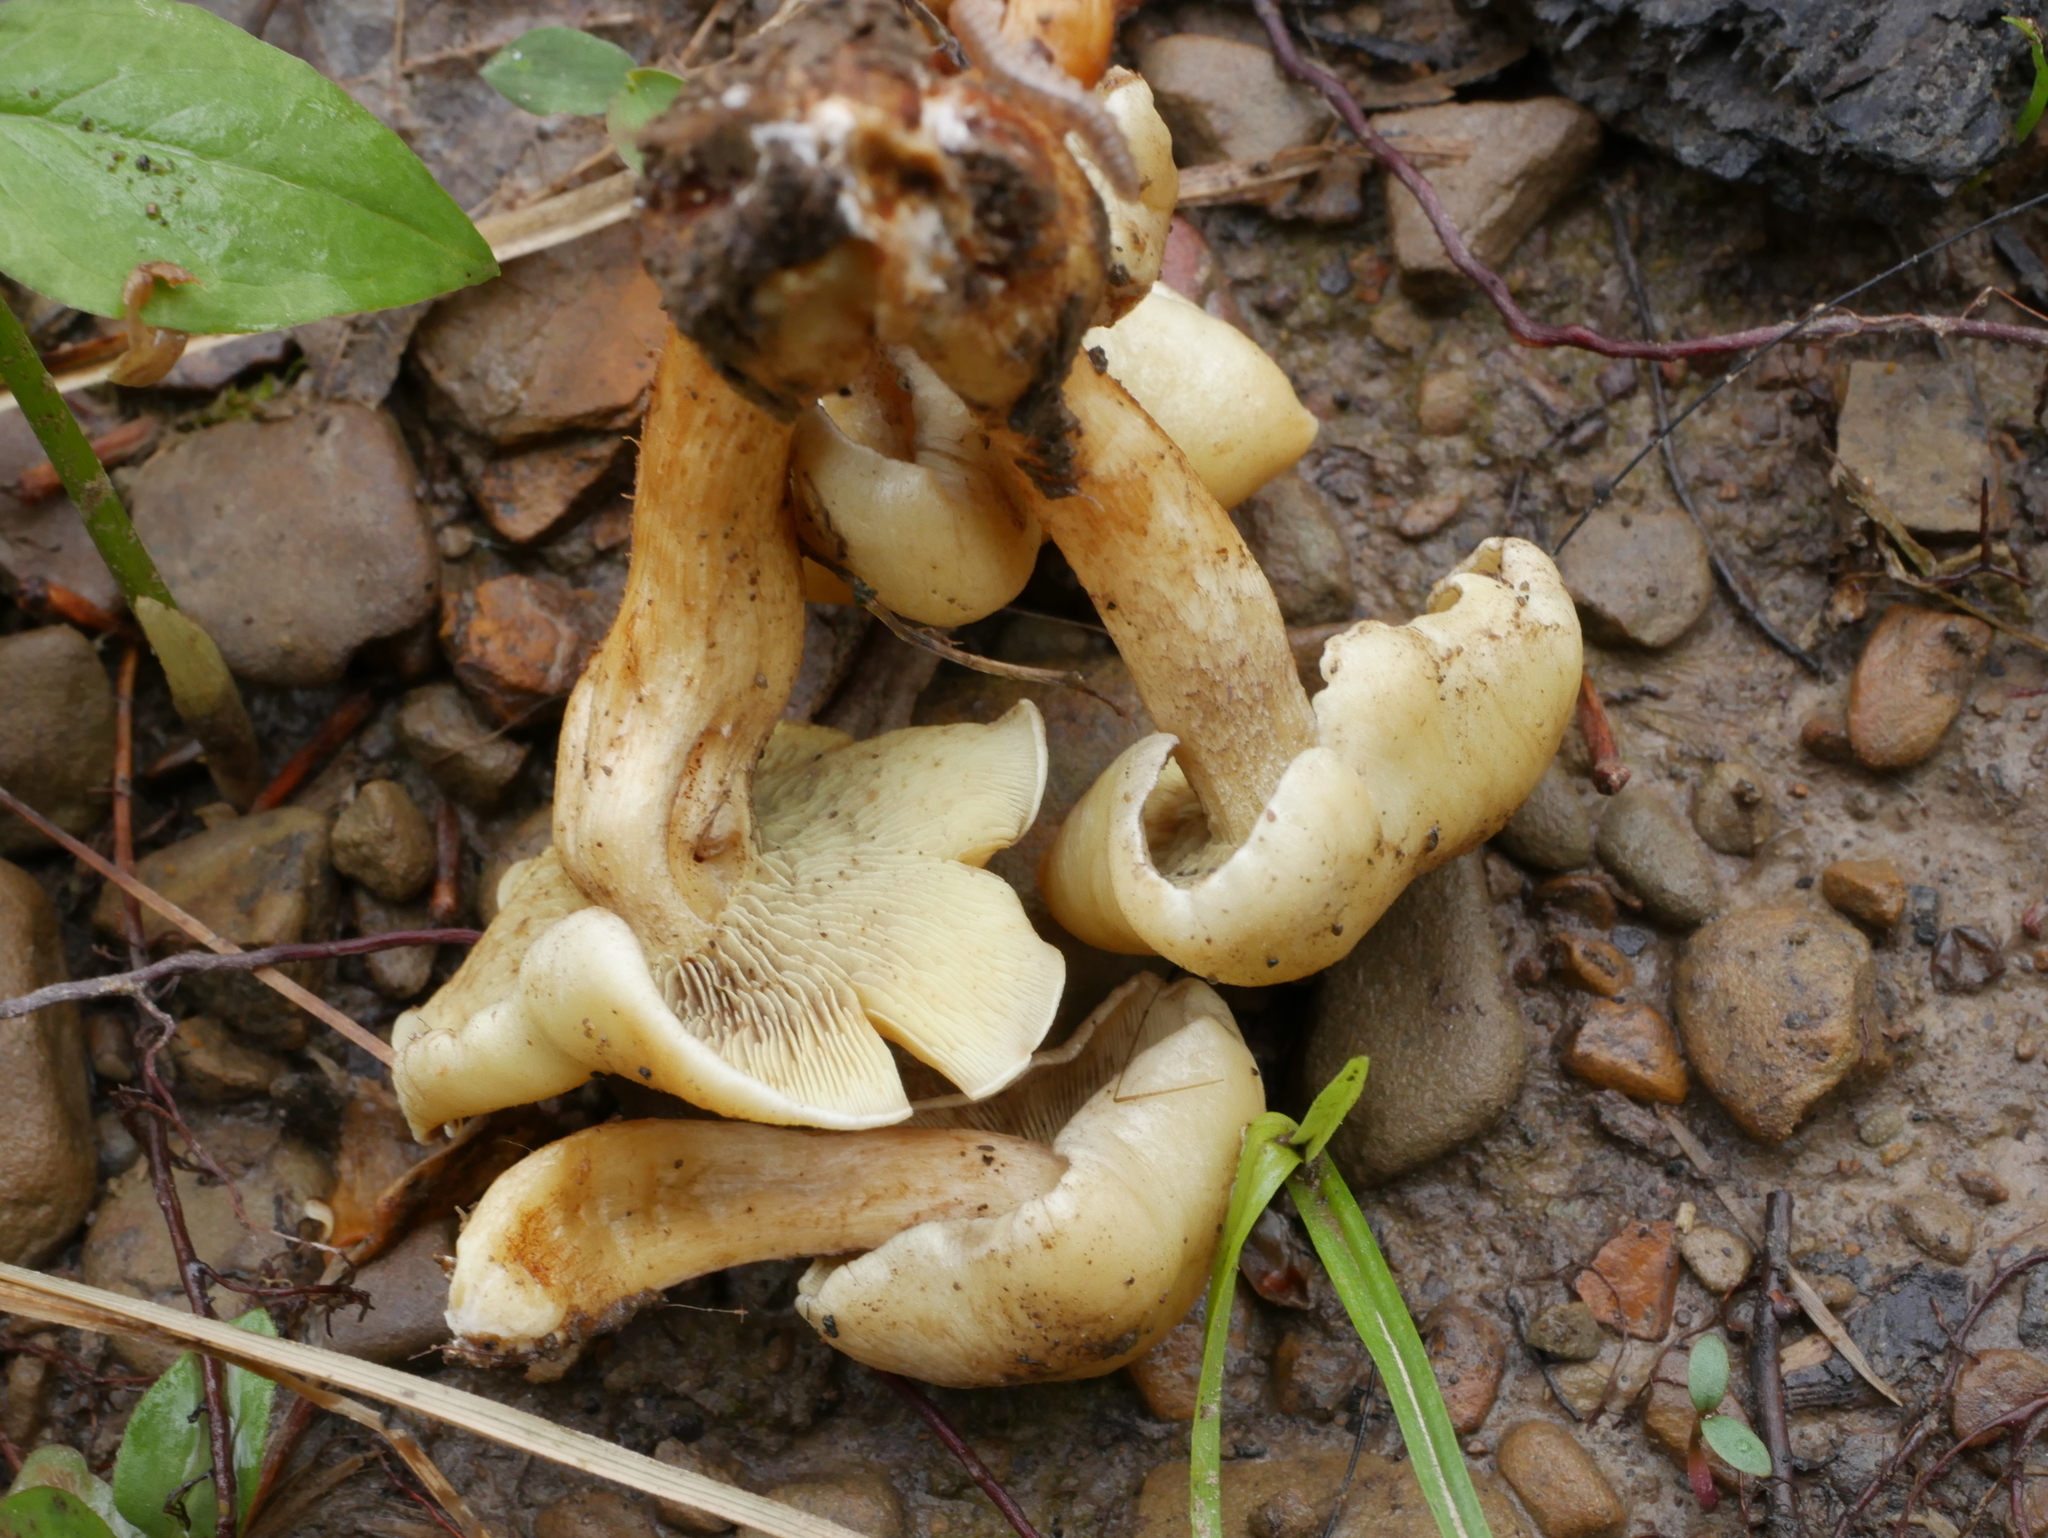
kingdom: Fungi
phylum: Basidiomycota
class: Agaricomycetes
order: Agaricales
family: Omphalotaceae
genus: Rhodocollybia
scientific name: Rhodocollybia maculata
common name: Spotted tough-shank
